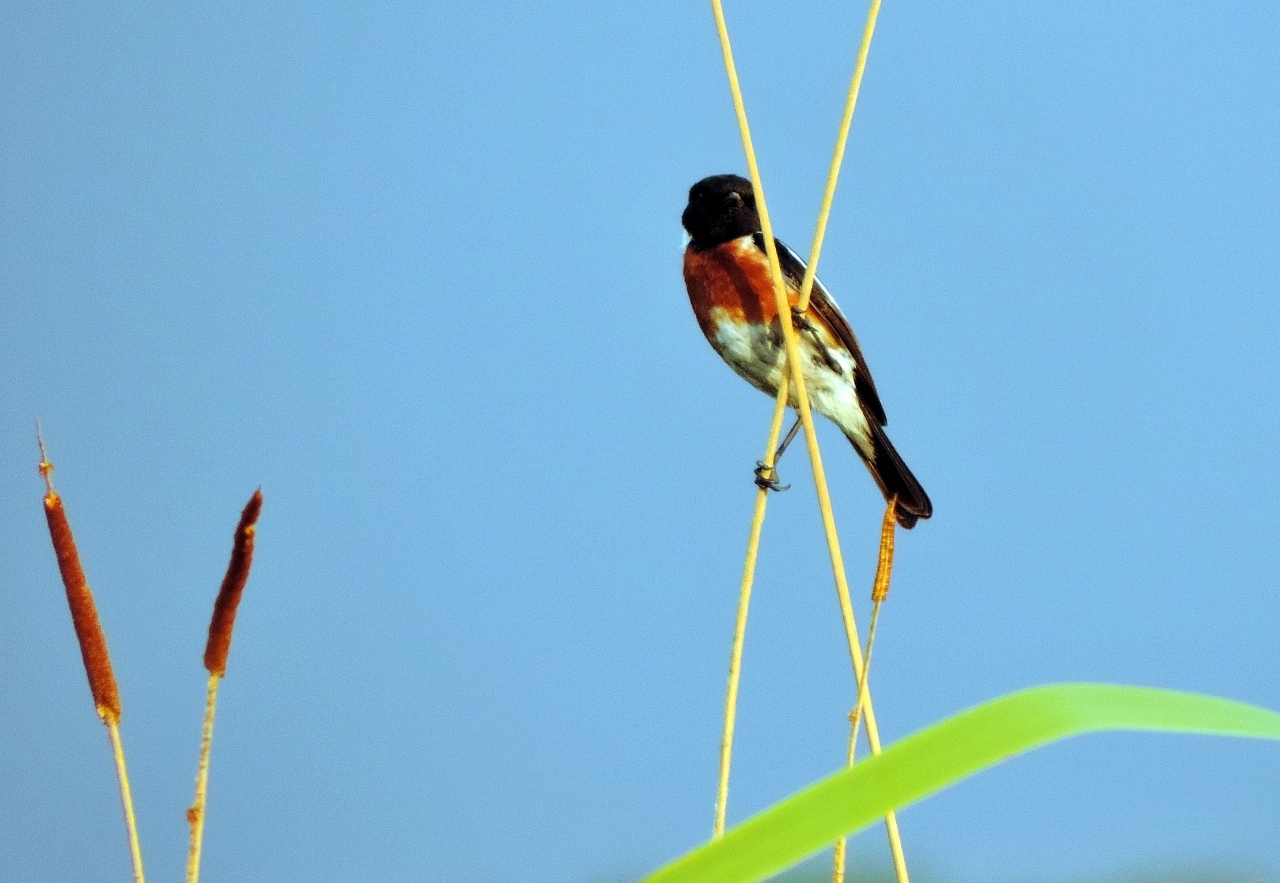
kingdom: Animalia
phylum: Chordata
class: Aves
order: Passeriformes
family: Muscicapidae
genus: Saxicola
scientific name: Saxicola torquatus
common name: African stonechat
